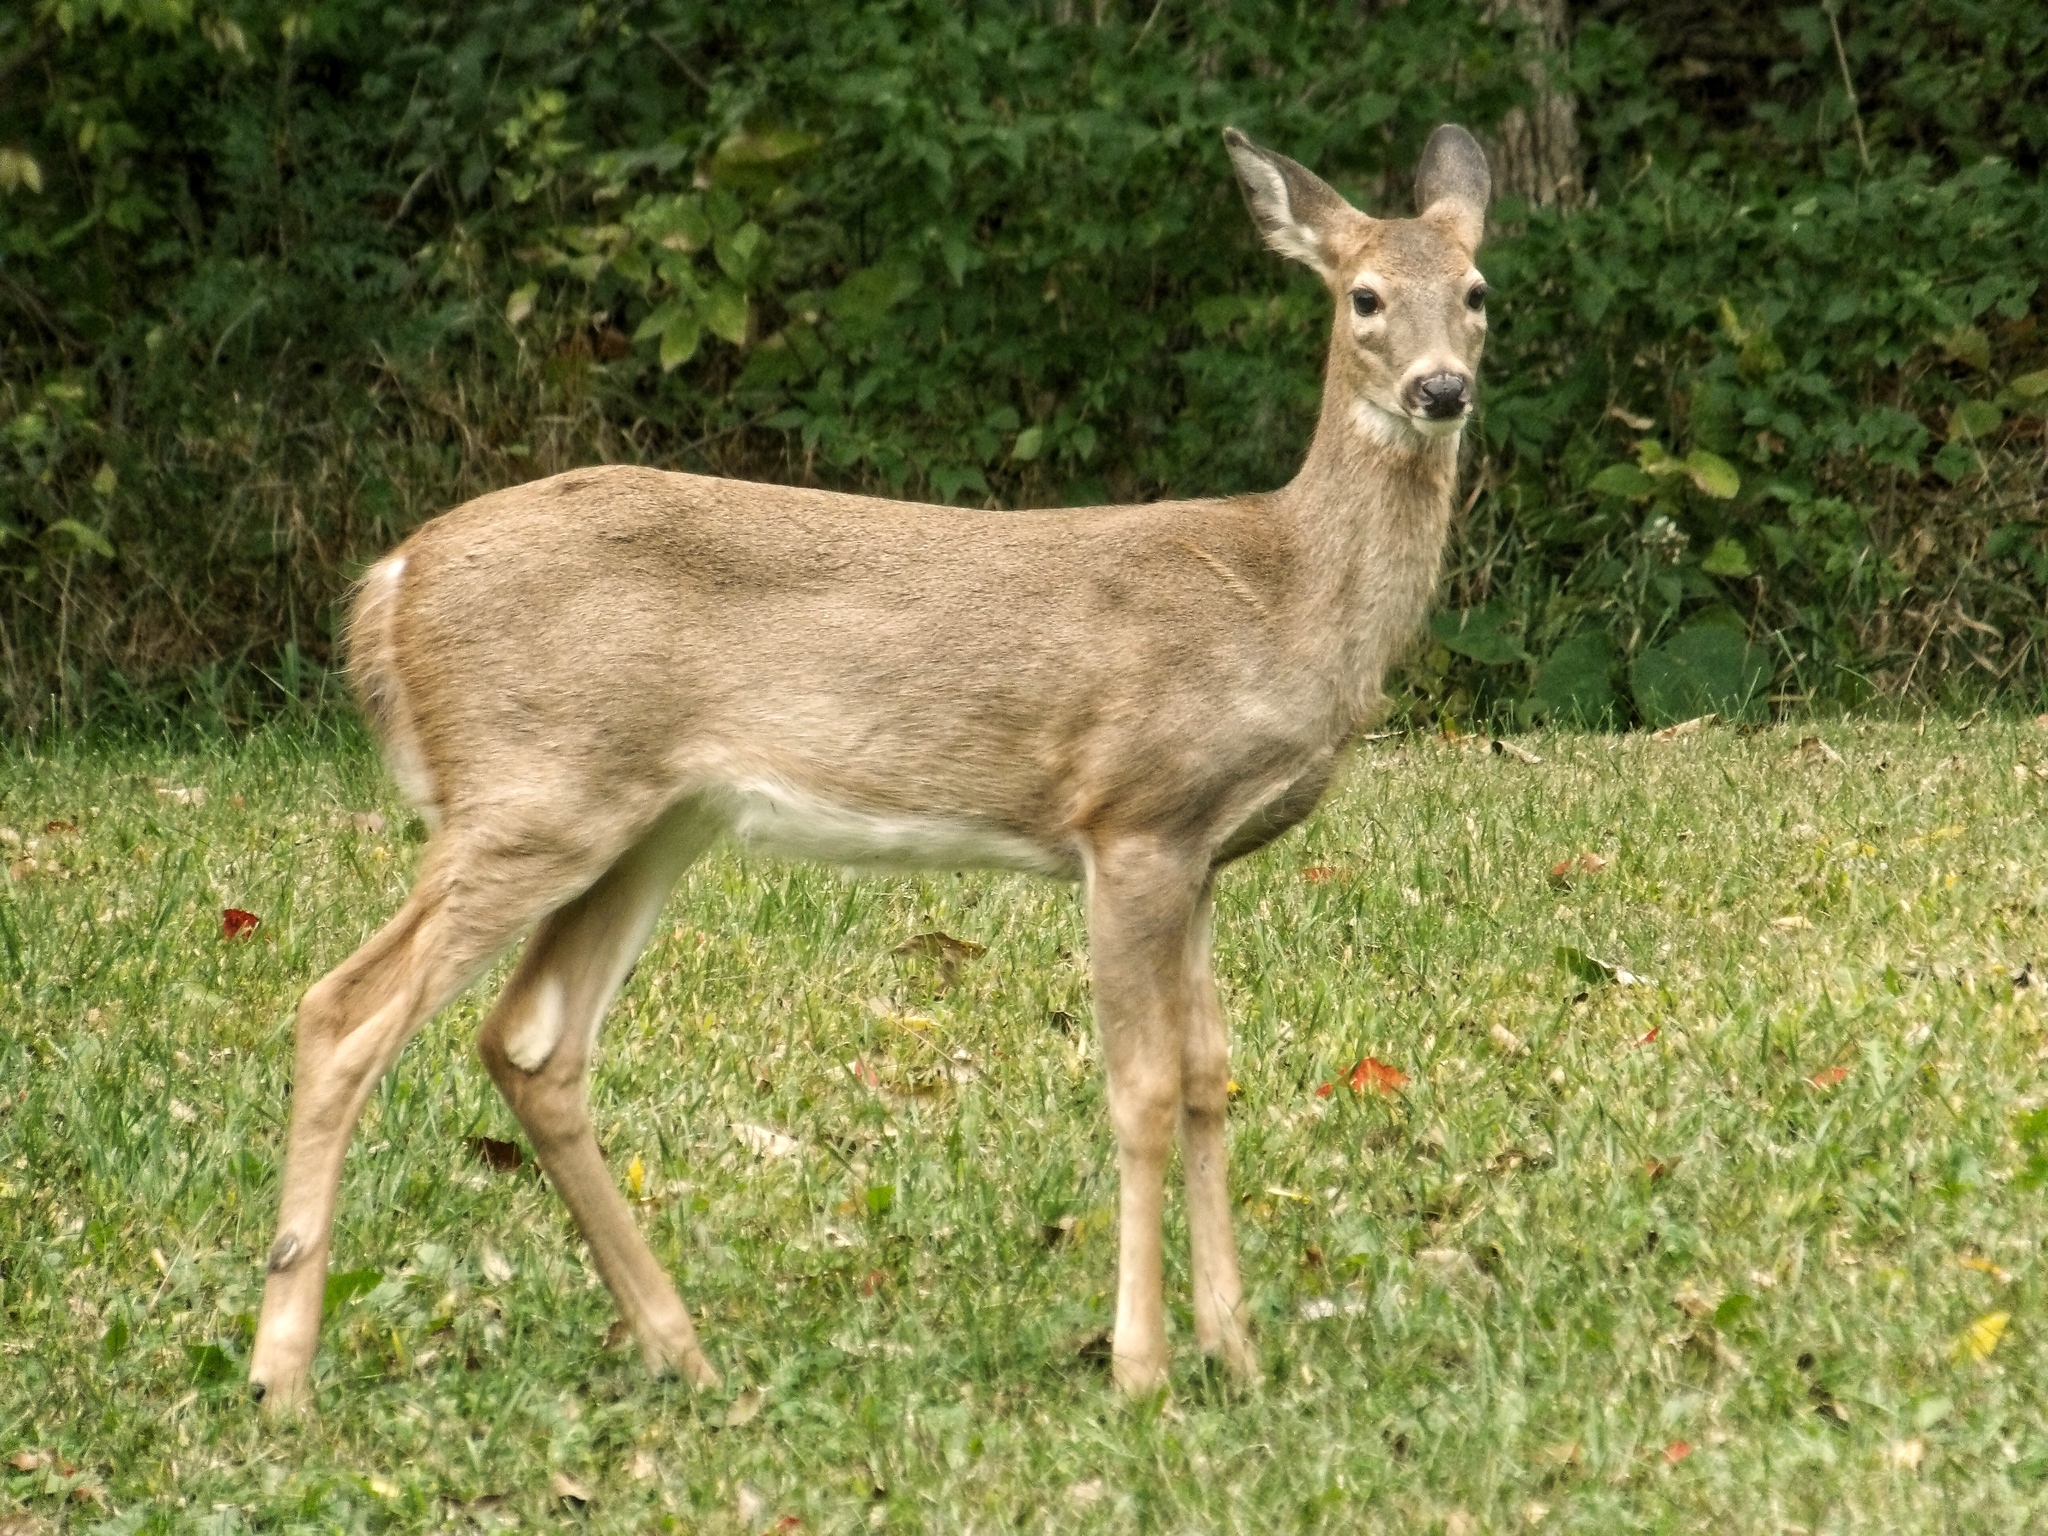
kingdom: Animalia
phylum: Chordata
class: Mammalia
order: Artiodactyla
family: Cervidae
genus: Odocoileus
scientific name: Odocoileus virginianus
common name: White-tailed deer
